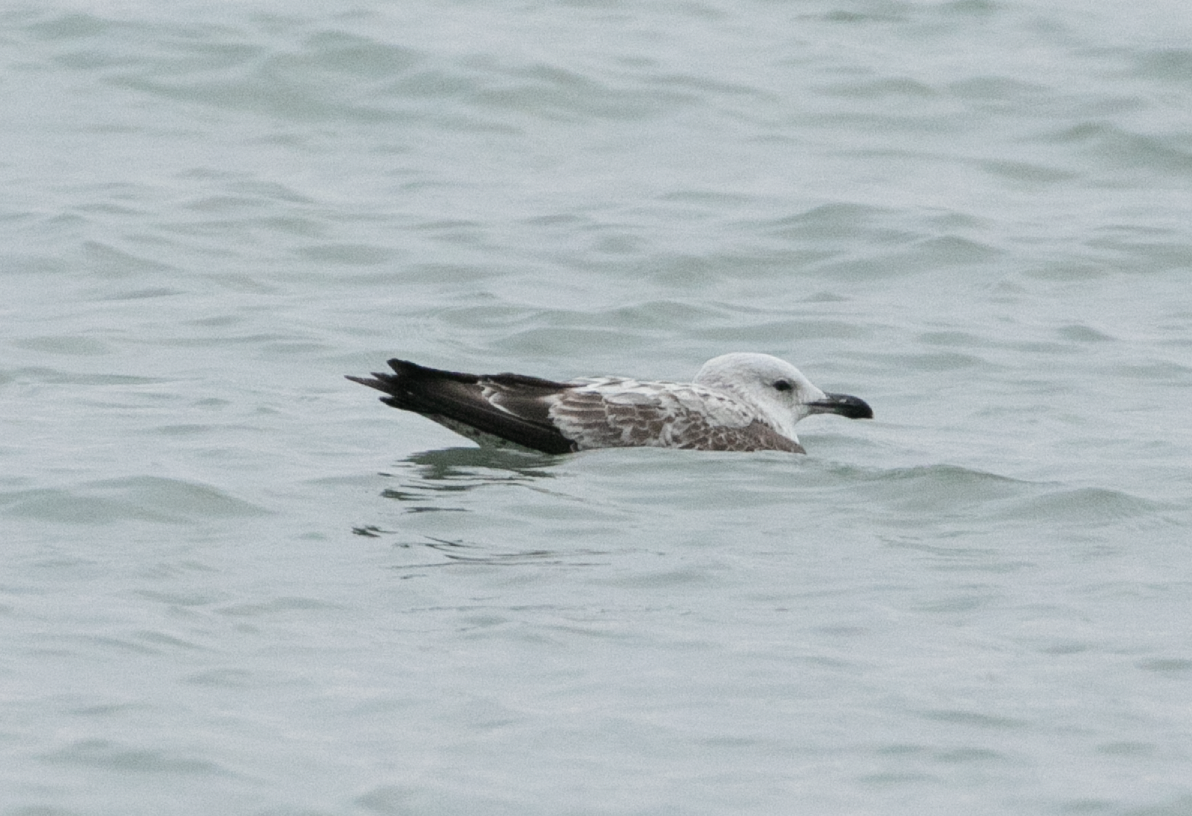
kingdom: Animalia
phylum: Chordata
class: Aves
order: Charadriiformes
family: Laridae
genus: Larus
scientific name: Larus michahellis
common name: Yellow-legged gull
